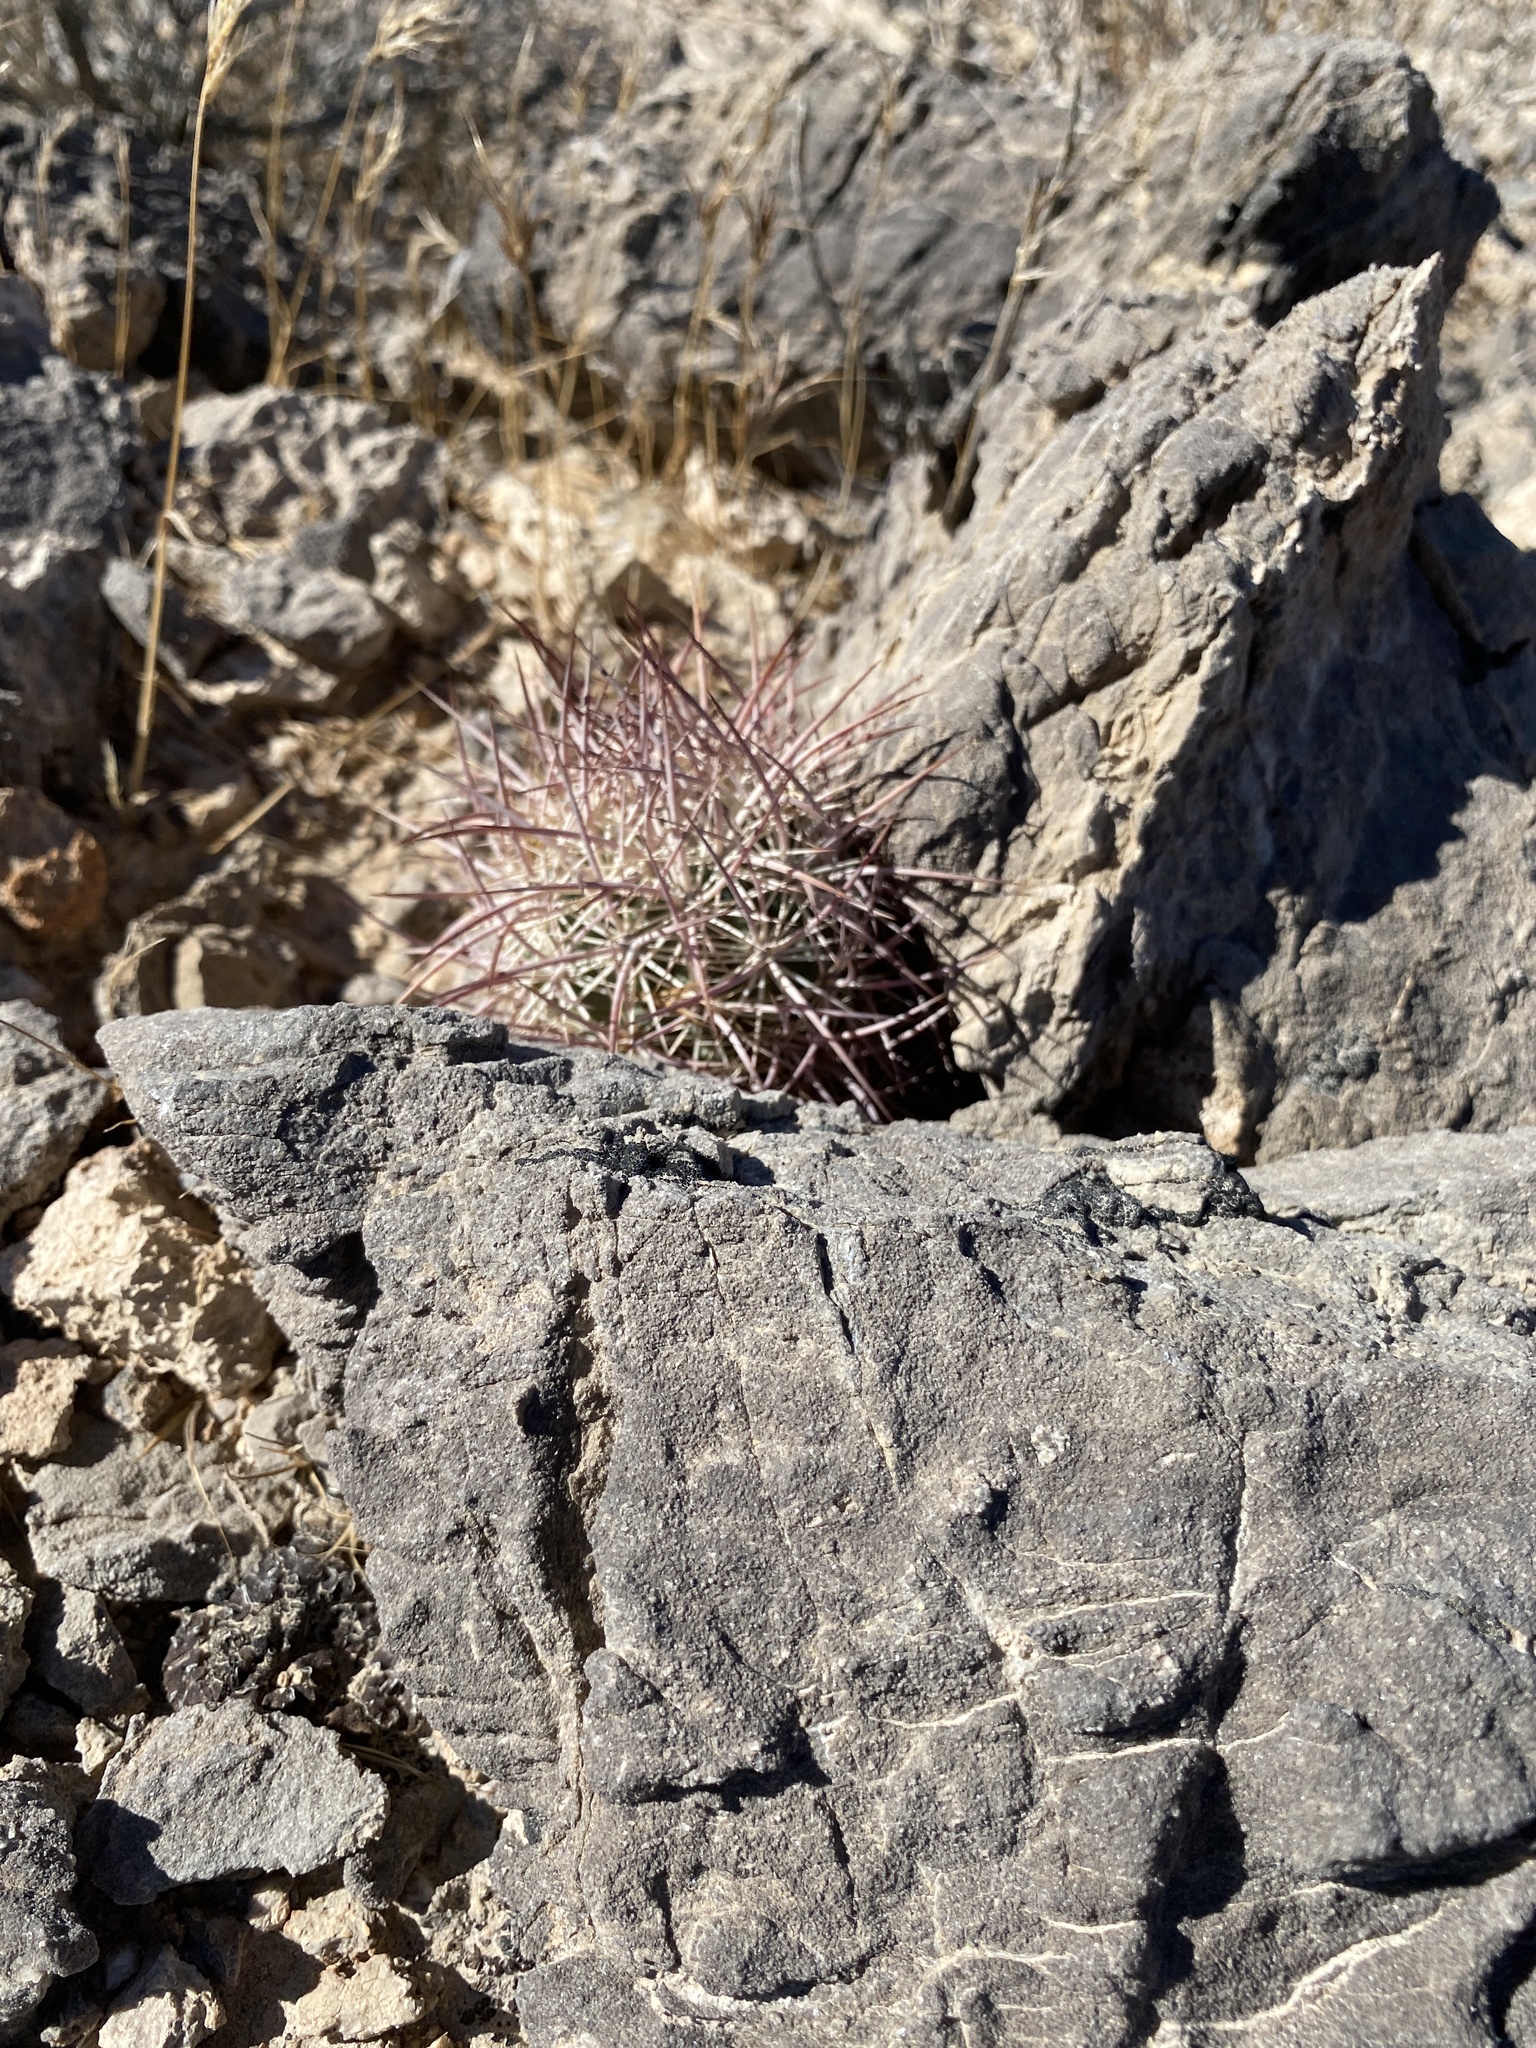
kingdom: Plantae
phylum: Tracheophyta
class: Magnoliopsida
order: Caryophyllales
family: Cactaceae
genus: Sclerocactus
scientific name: Sclerocactus johnsonii
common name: Eight-spine fishhook cactus
